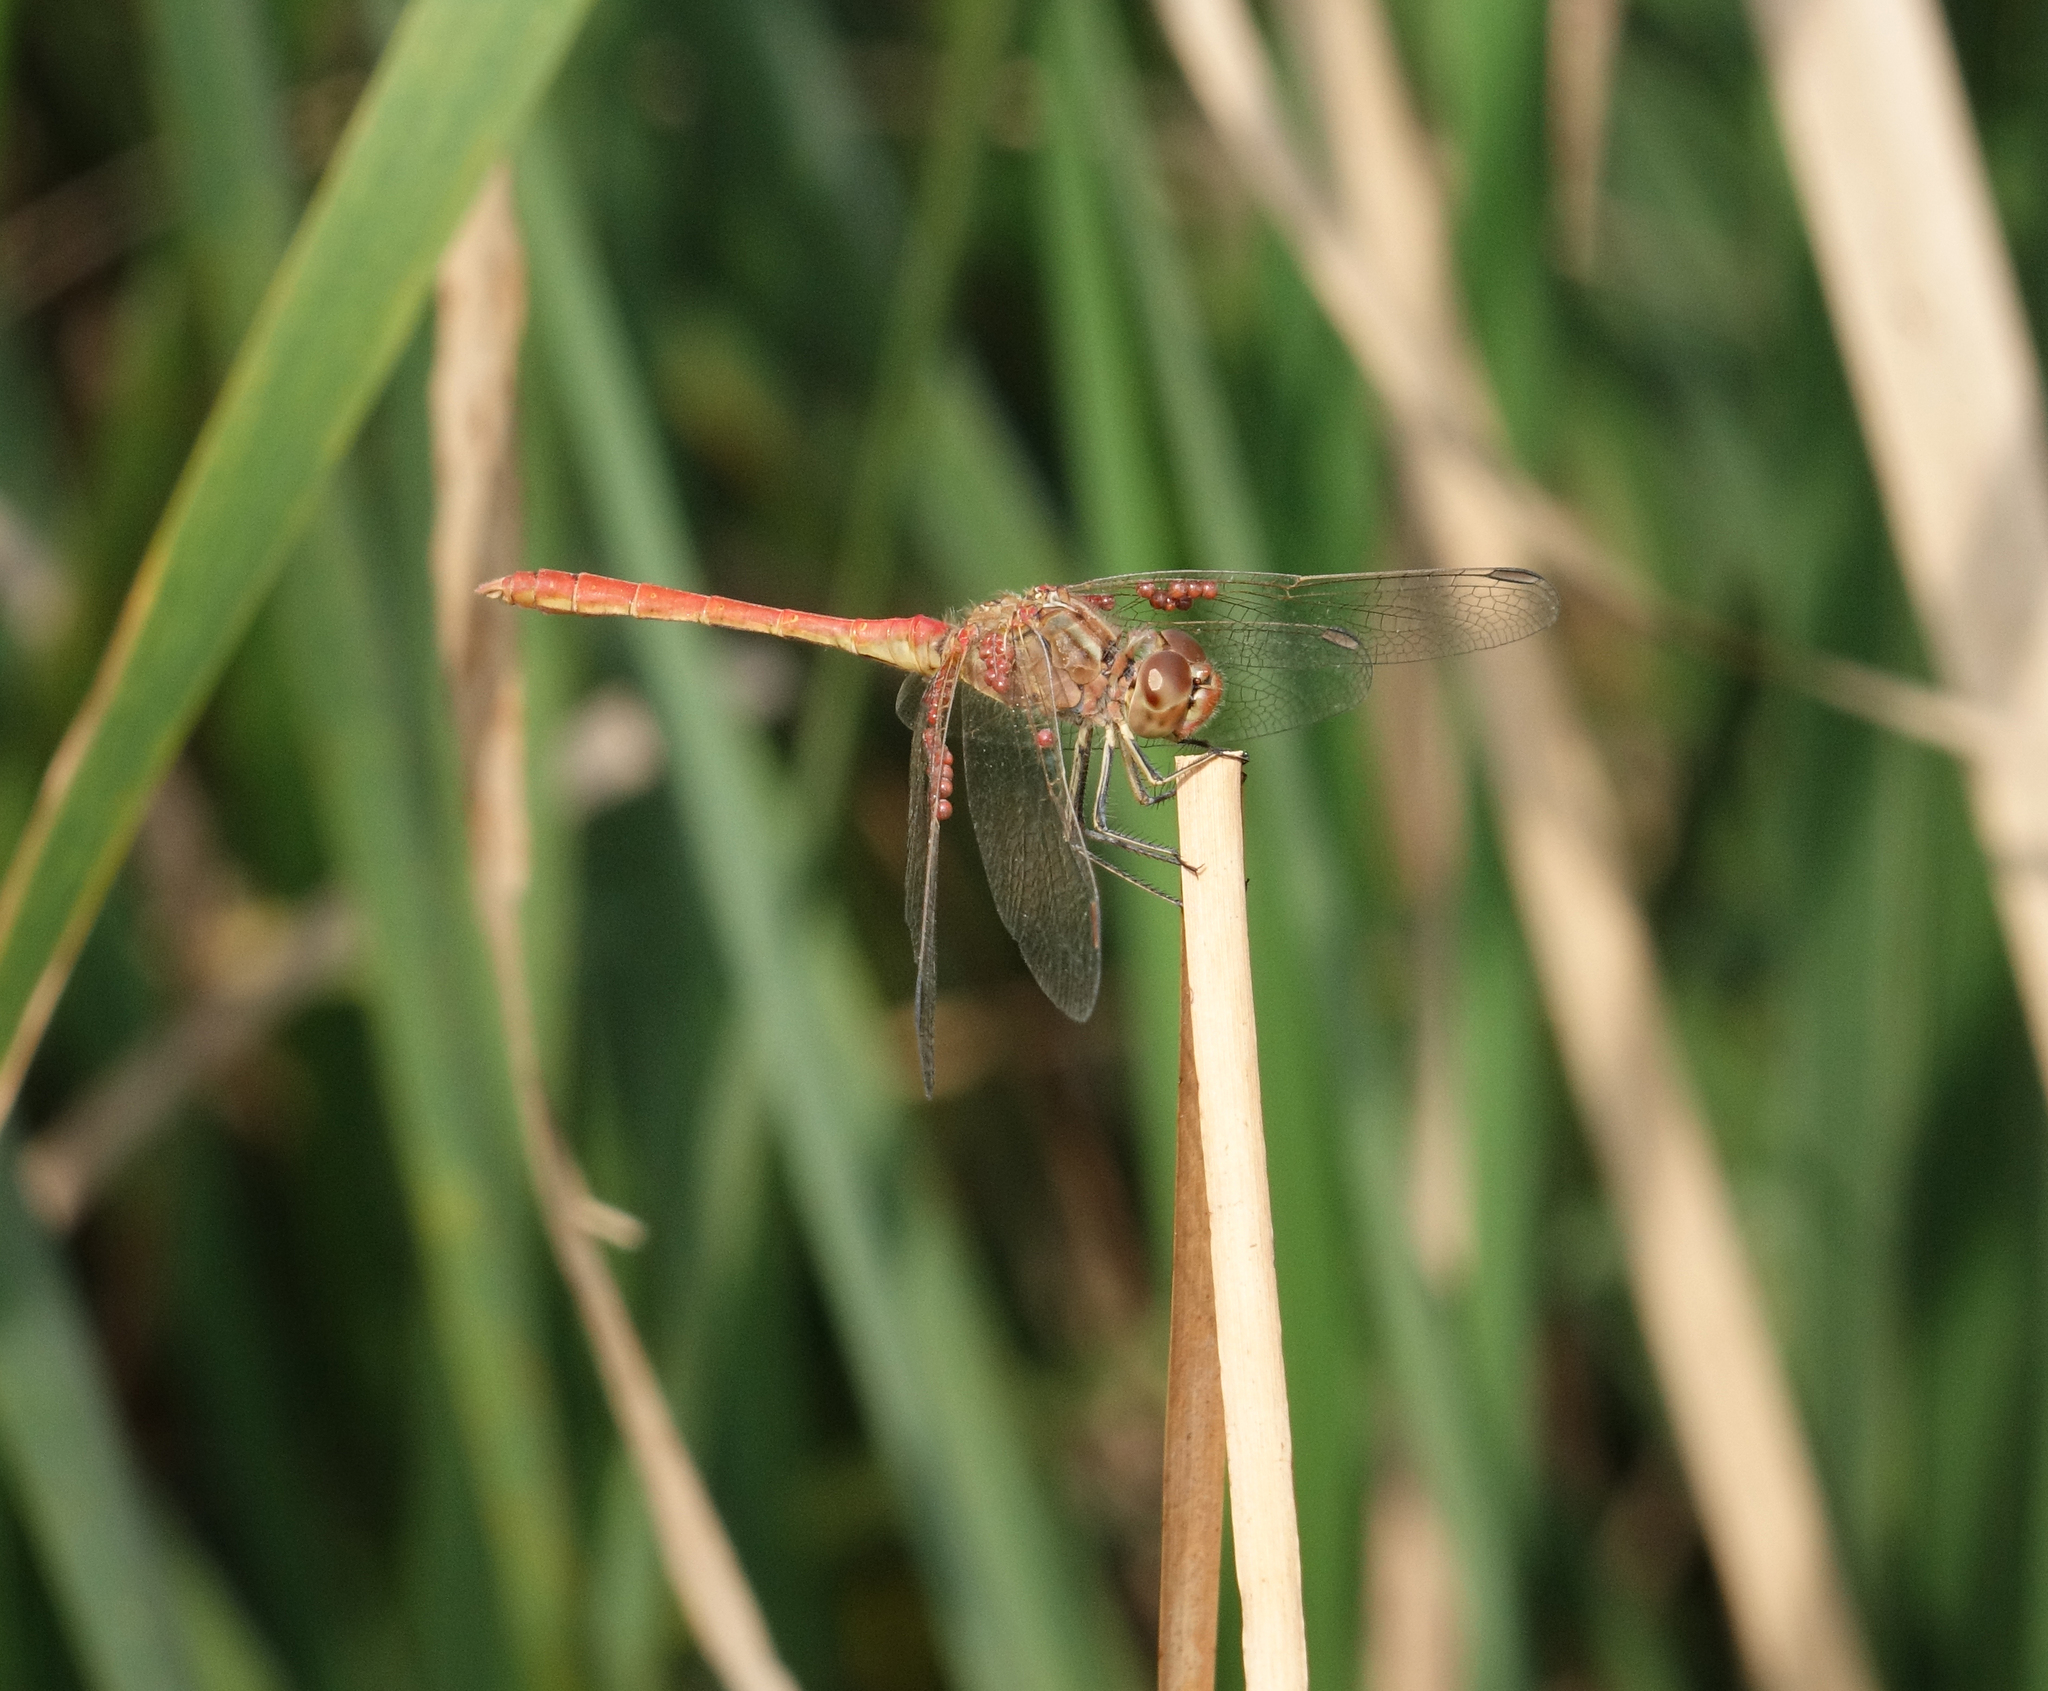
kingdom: Animalia
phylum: Arthropoda
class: Insecta
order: Odonata
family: Libellulidae
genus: Sympetrum
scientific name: Sympetrum meridionale
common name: Southern darter
